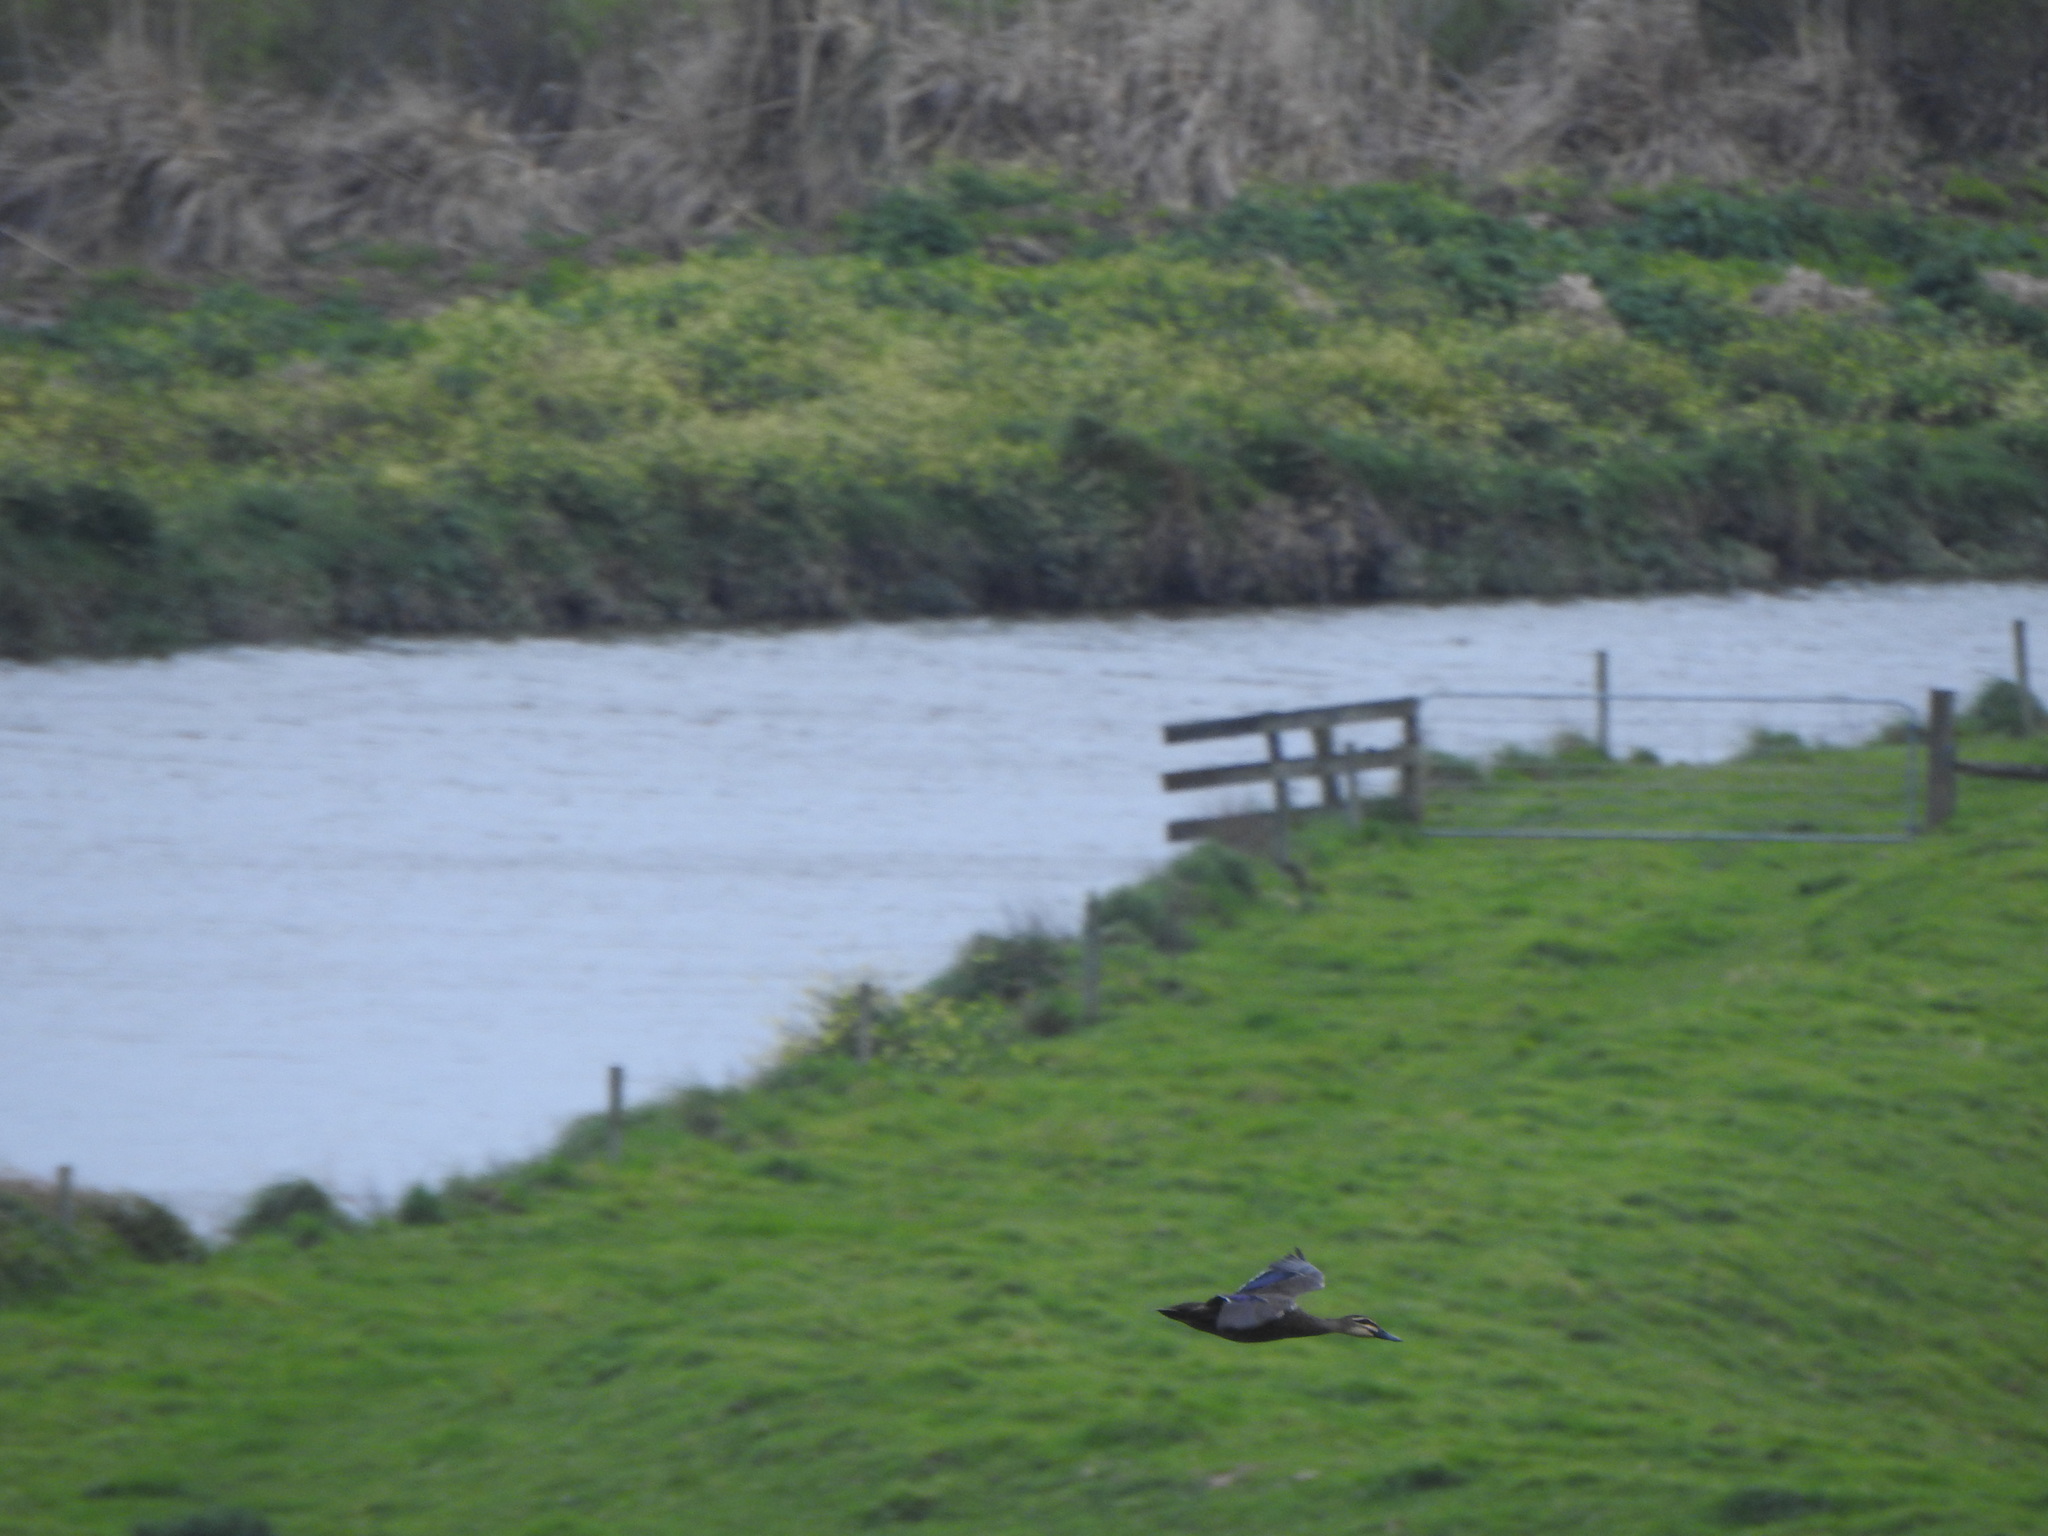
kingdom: Animalia
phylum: Chordata
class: Aves
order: Anseriformes
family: Anatidae
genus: Anas
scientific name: Anas
